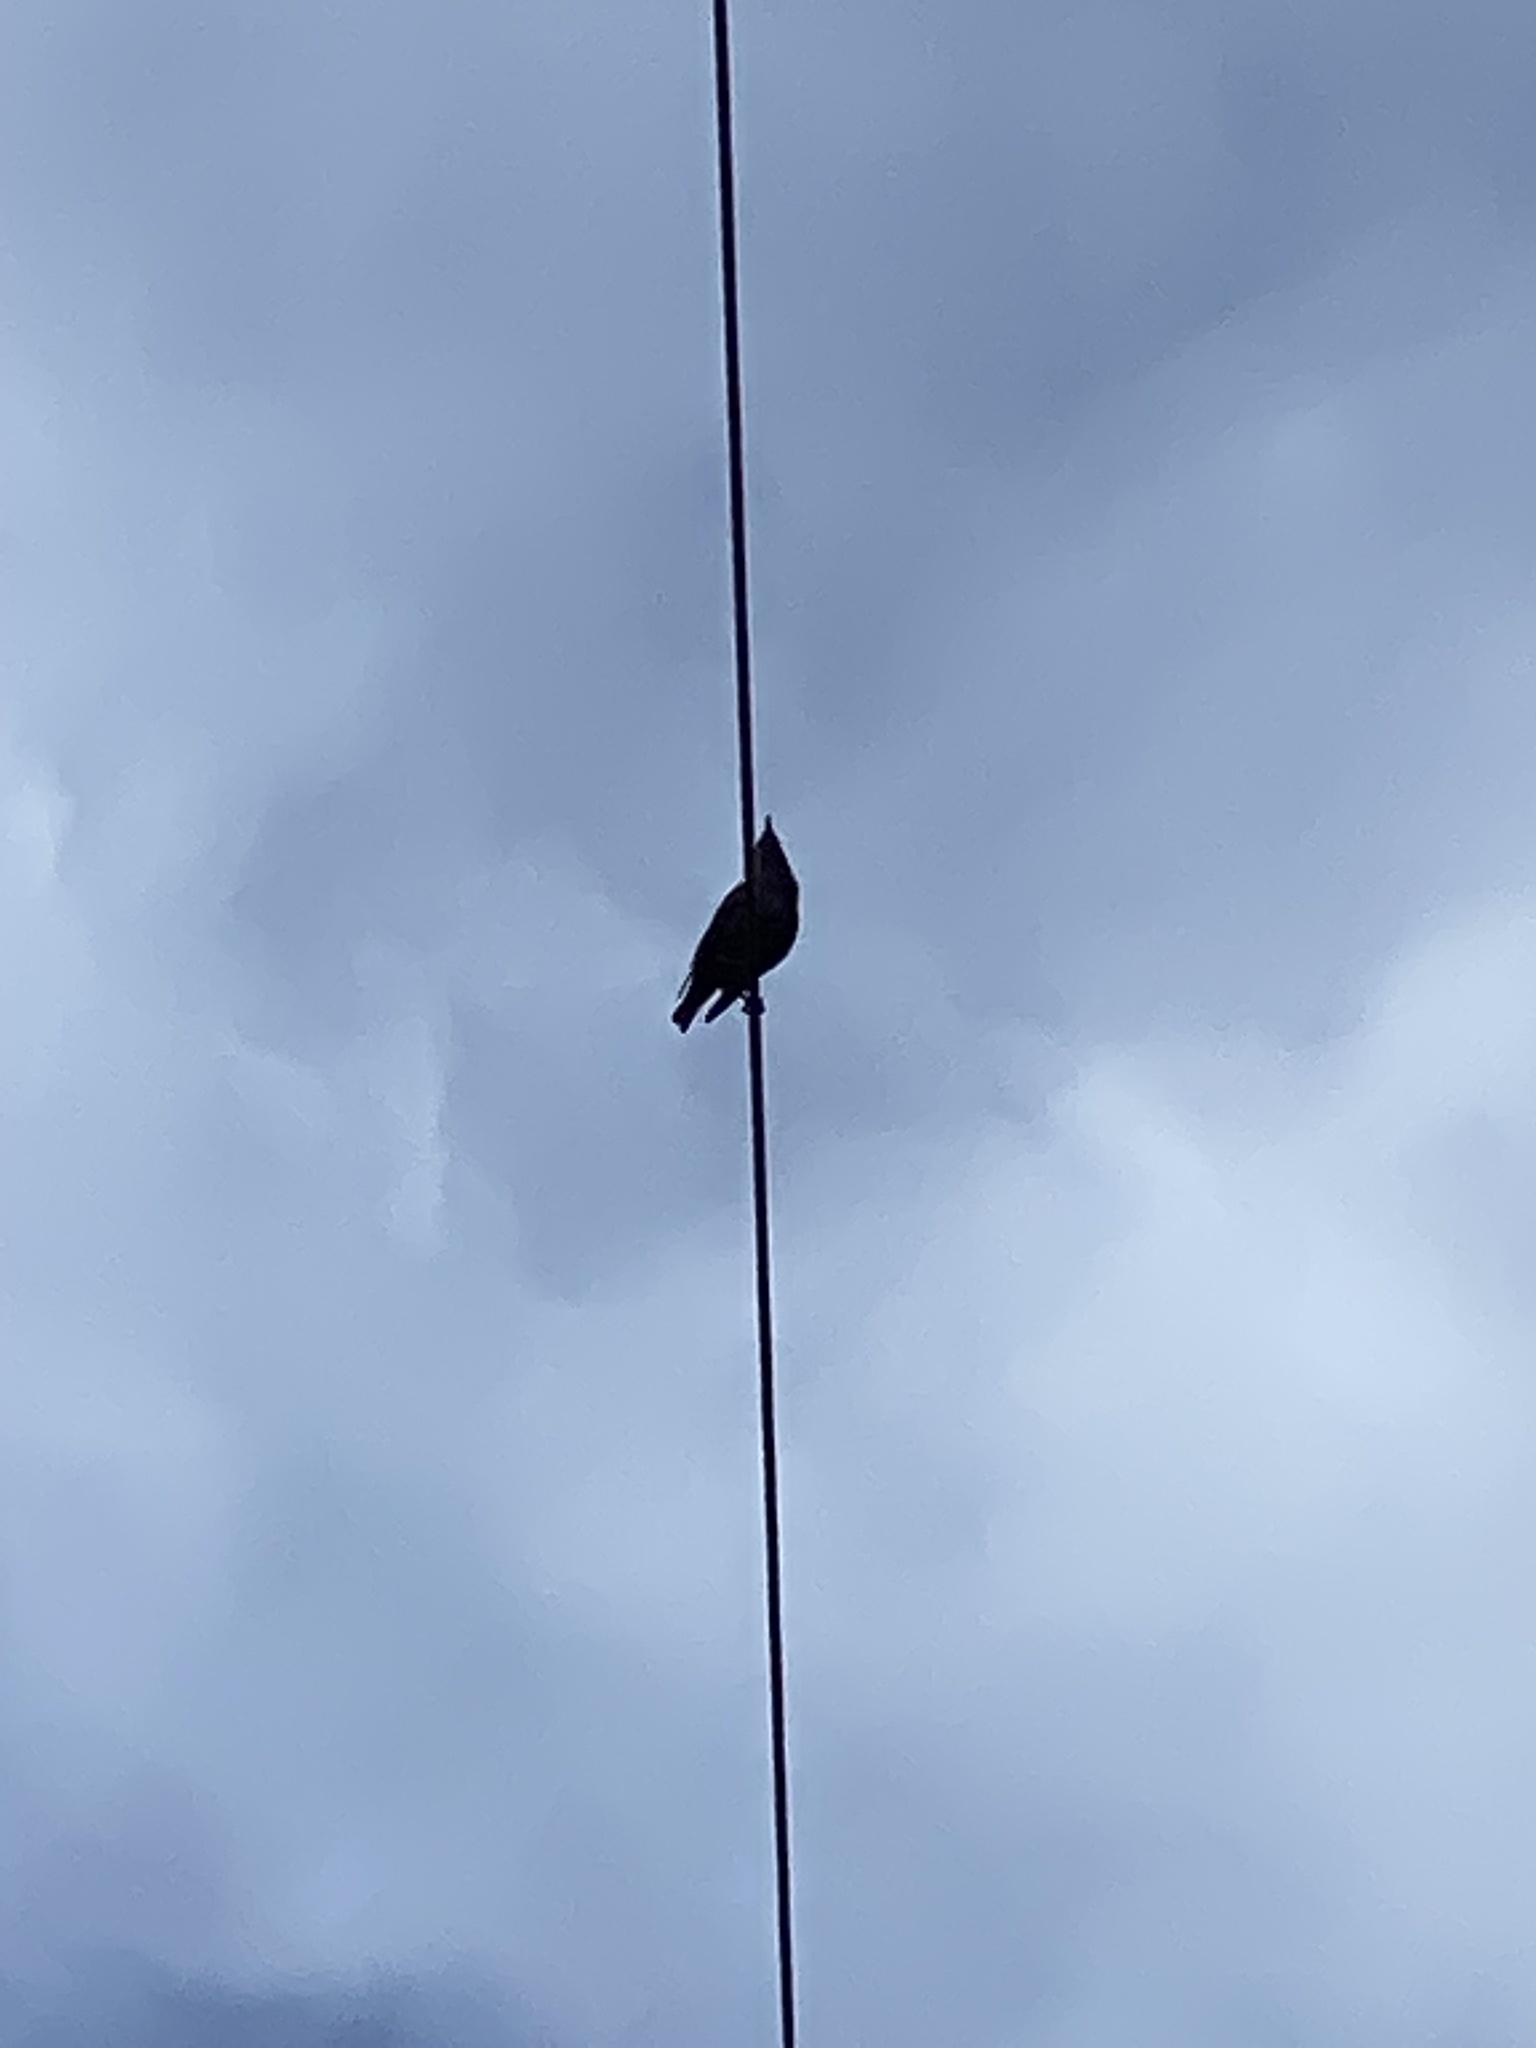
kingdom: Animalia
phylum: Chordata
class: Aves
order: Passeriformes
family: Sturnidae
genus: Sturnus
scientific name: Sturnus vulgaris
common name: Common starling
